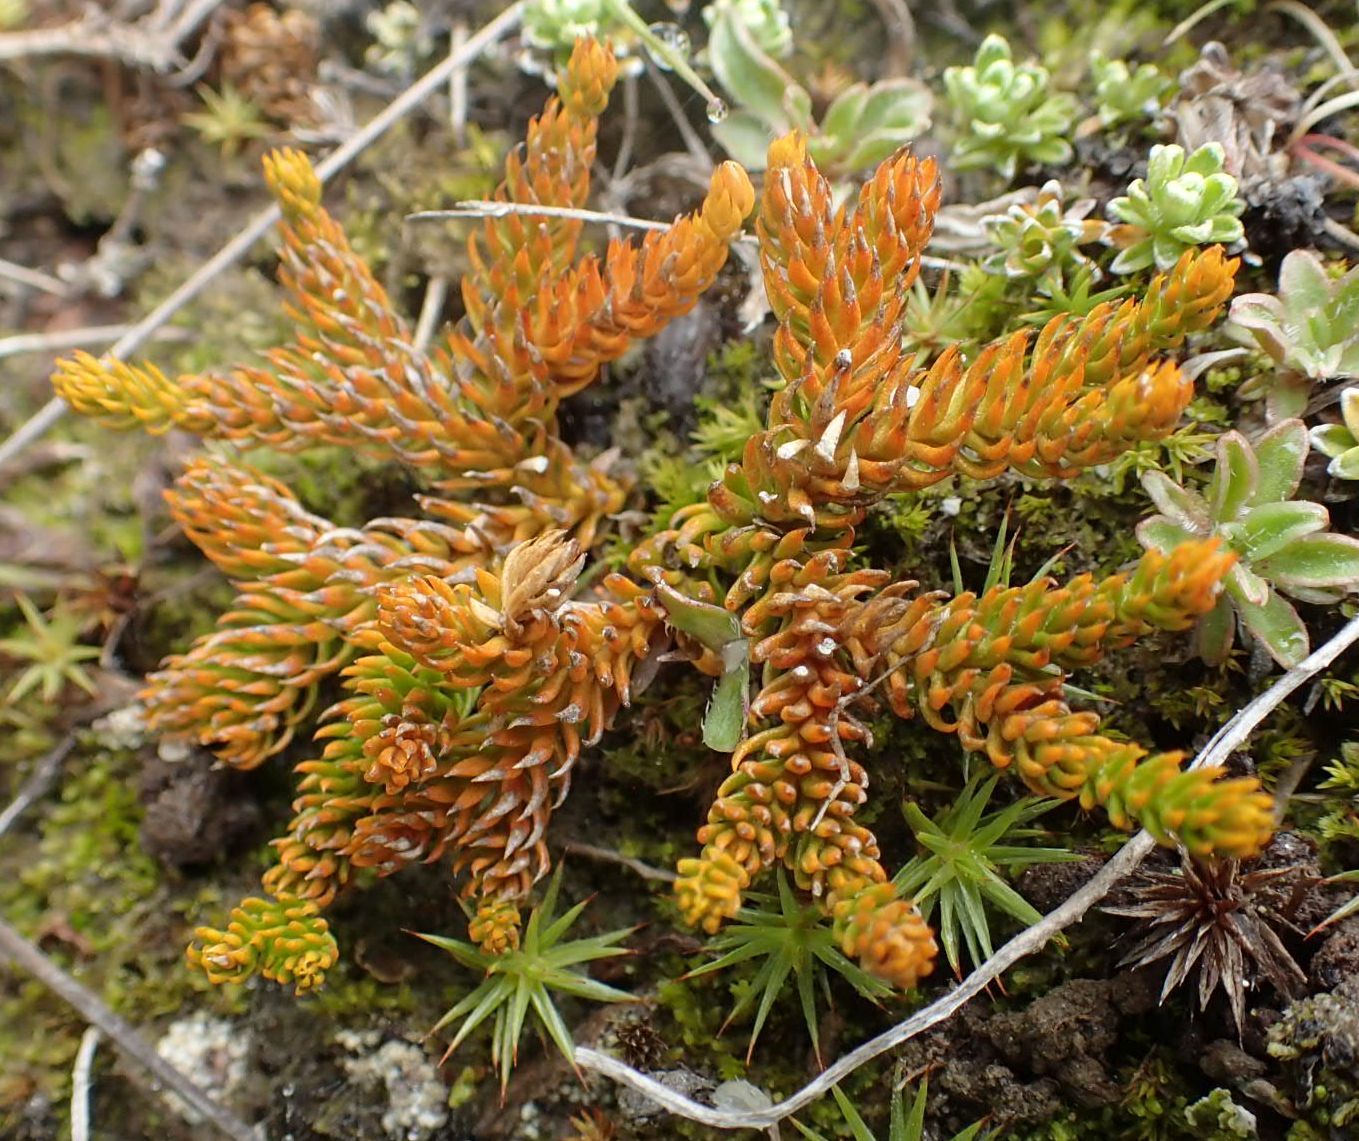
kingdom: Plantae
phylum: Tracheophyta
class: Lycopodiopsida
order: Lycopodiales
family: Lycopodiaceae
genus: Austrolycopodium
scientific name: Austrolycopodium fastigiatum
